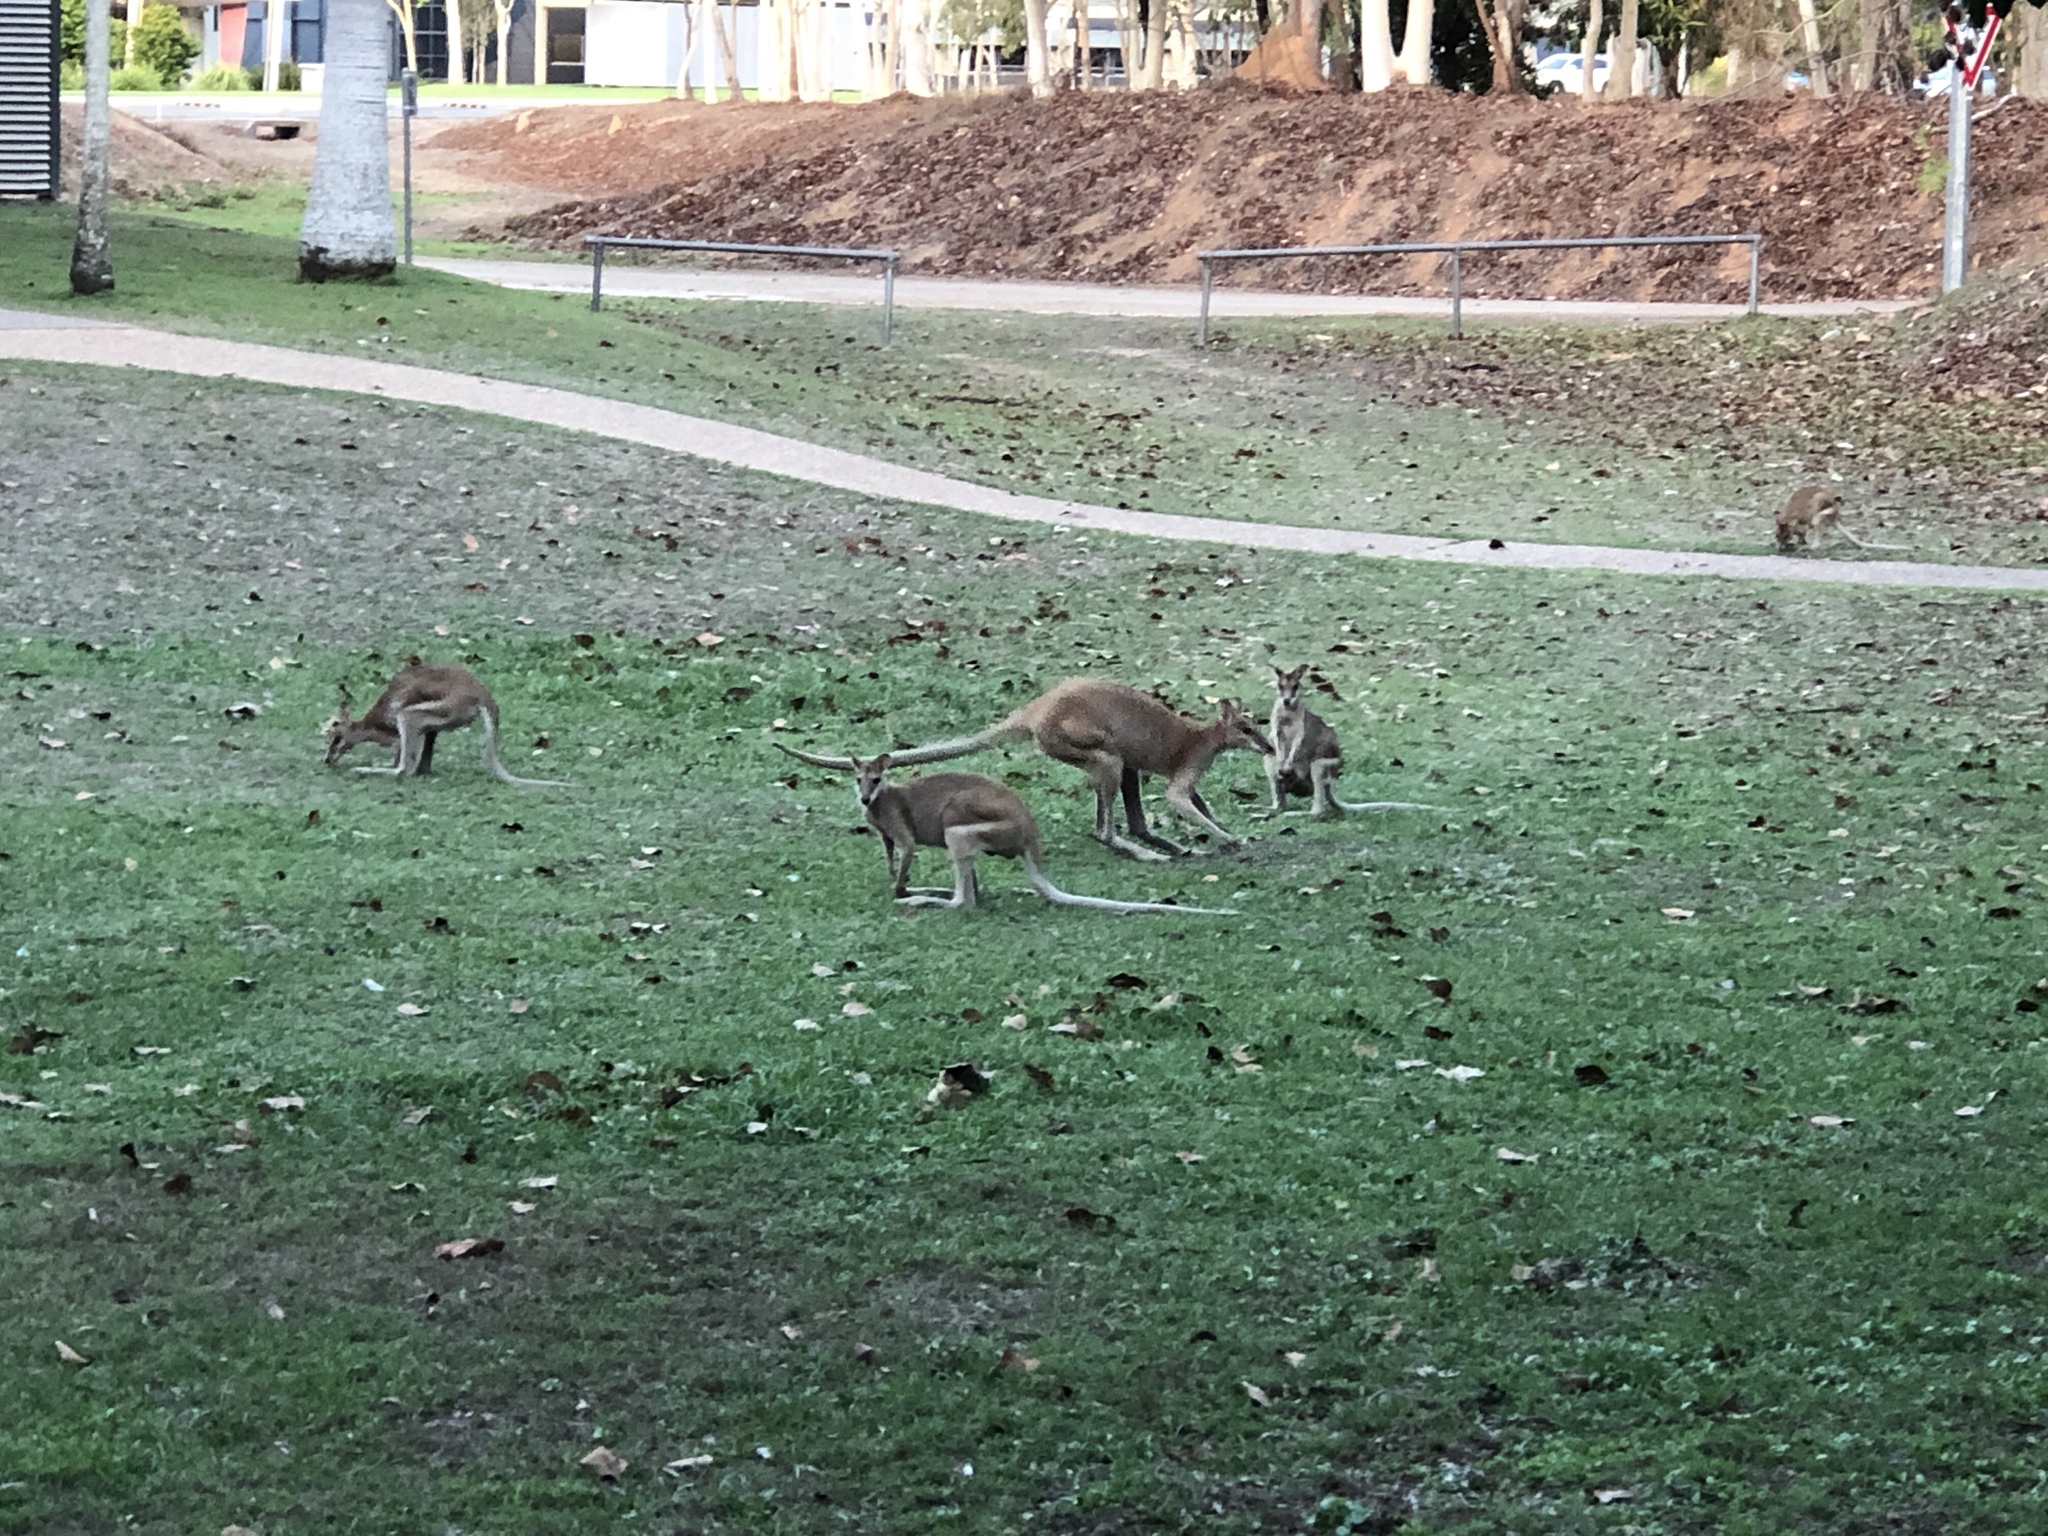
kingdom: Animalia
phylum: Chordata
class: Mammalia
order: Diprotodontia
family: Macropodidae
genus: Macropus
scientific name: Macropus agilis
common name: Agile wallaby
